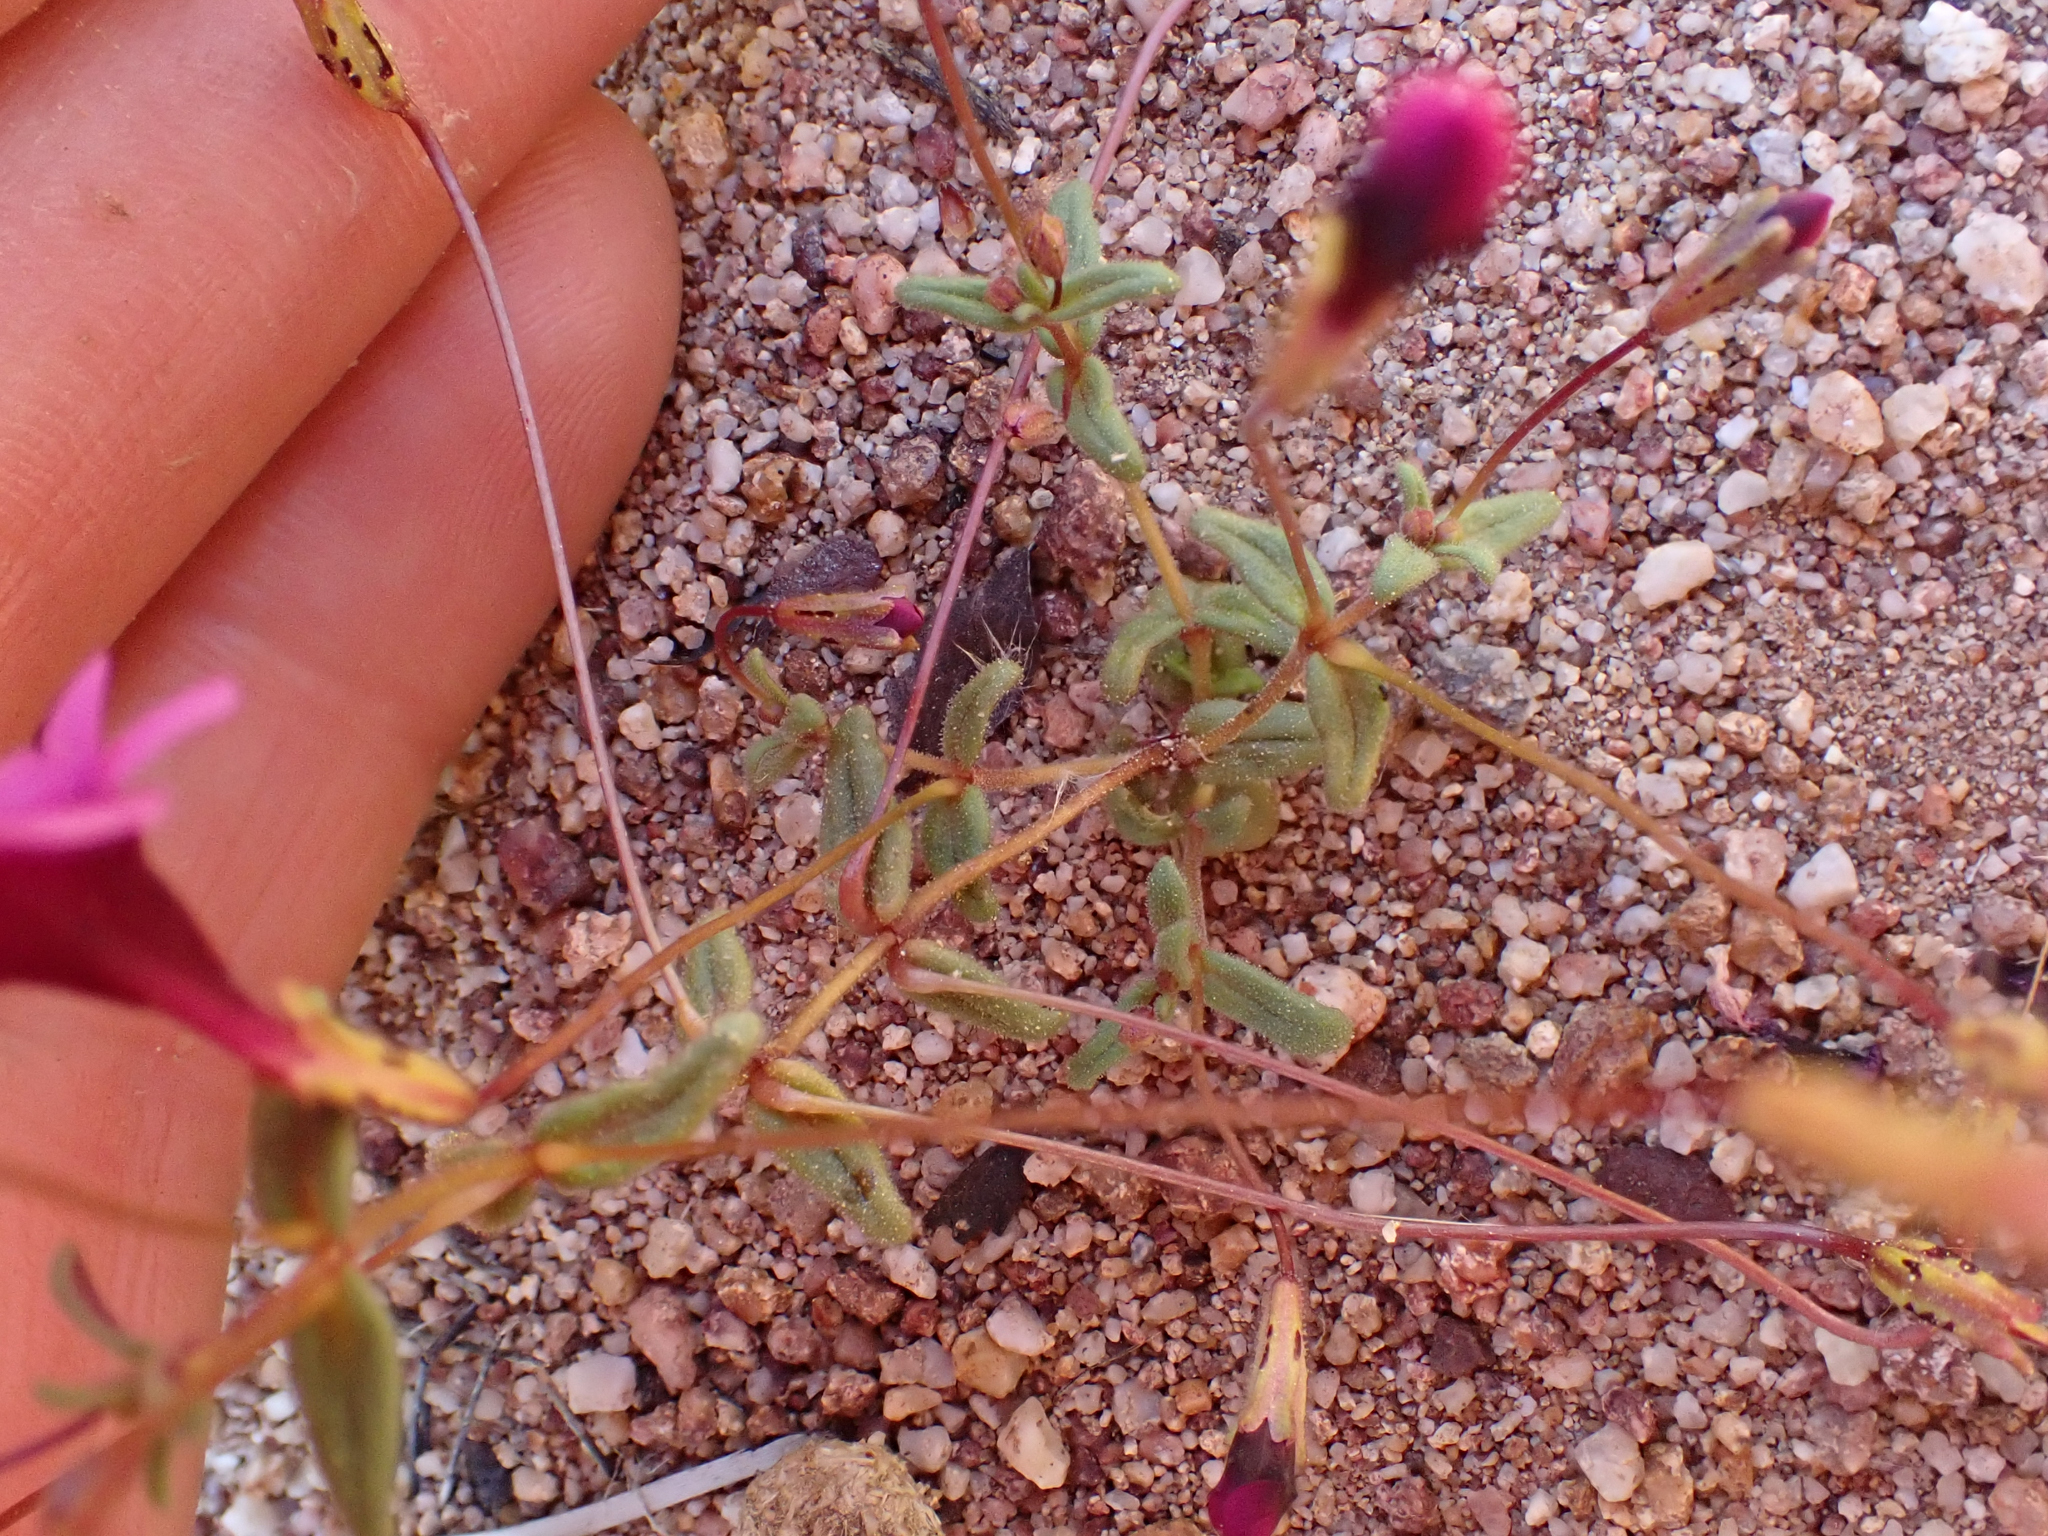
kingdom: Plantae
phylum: Tracheophyta
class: Magnoliopsida
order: Lamiales
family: Phrymaceae
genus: Erythranthe
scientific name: Erythranthe hardhamiae
